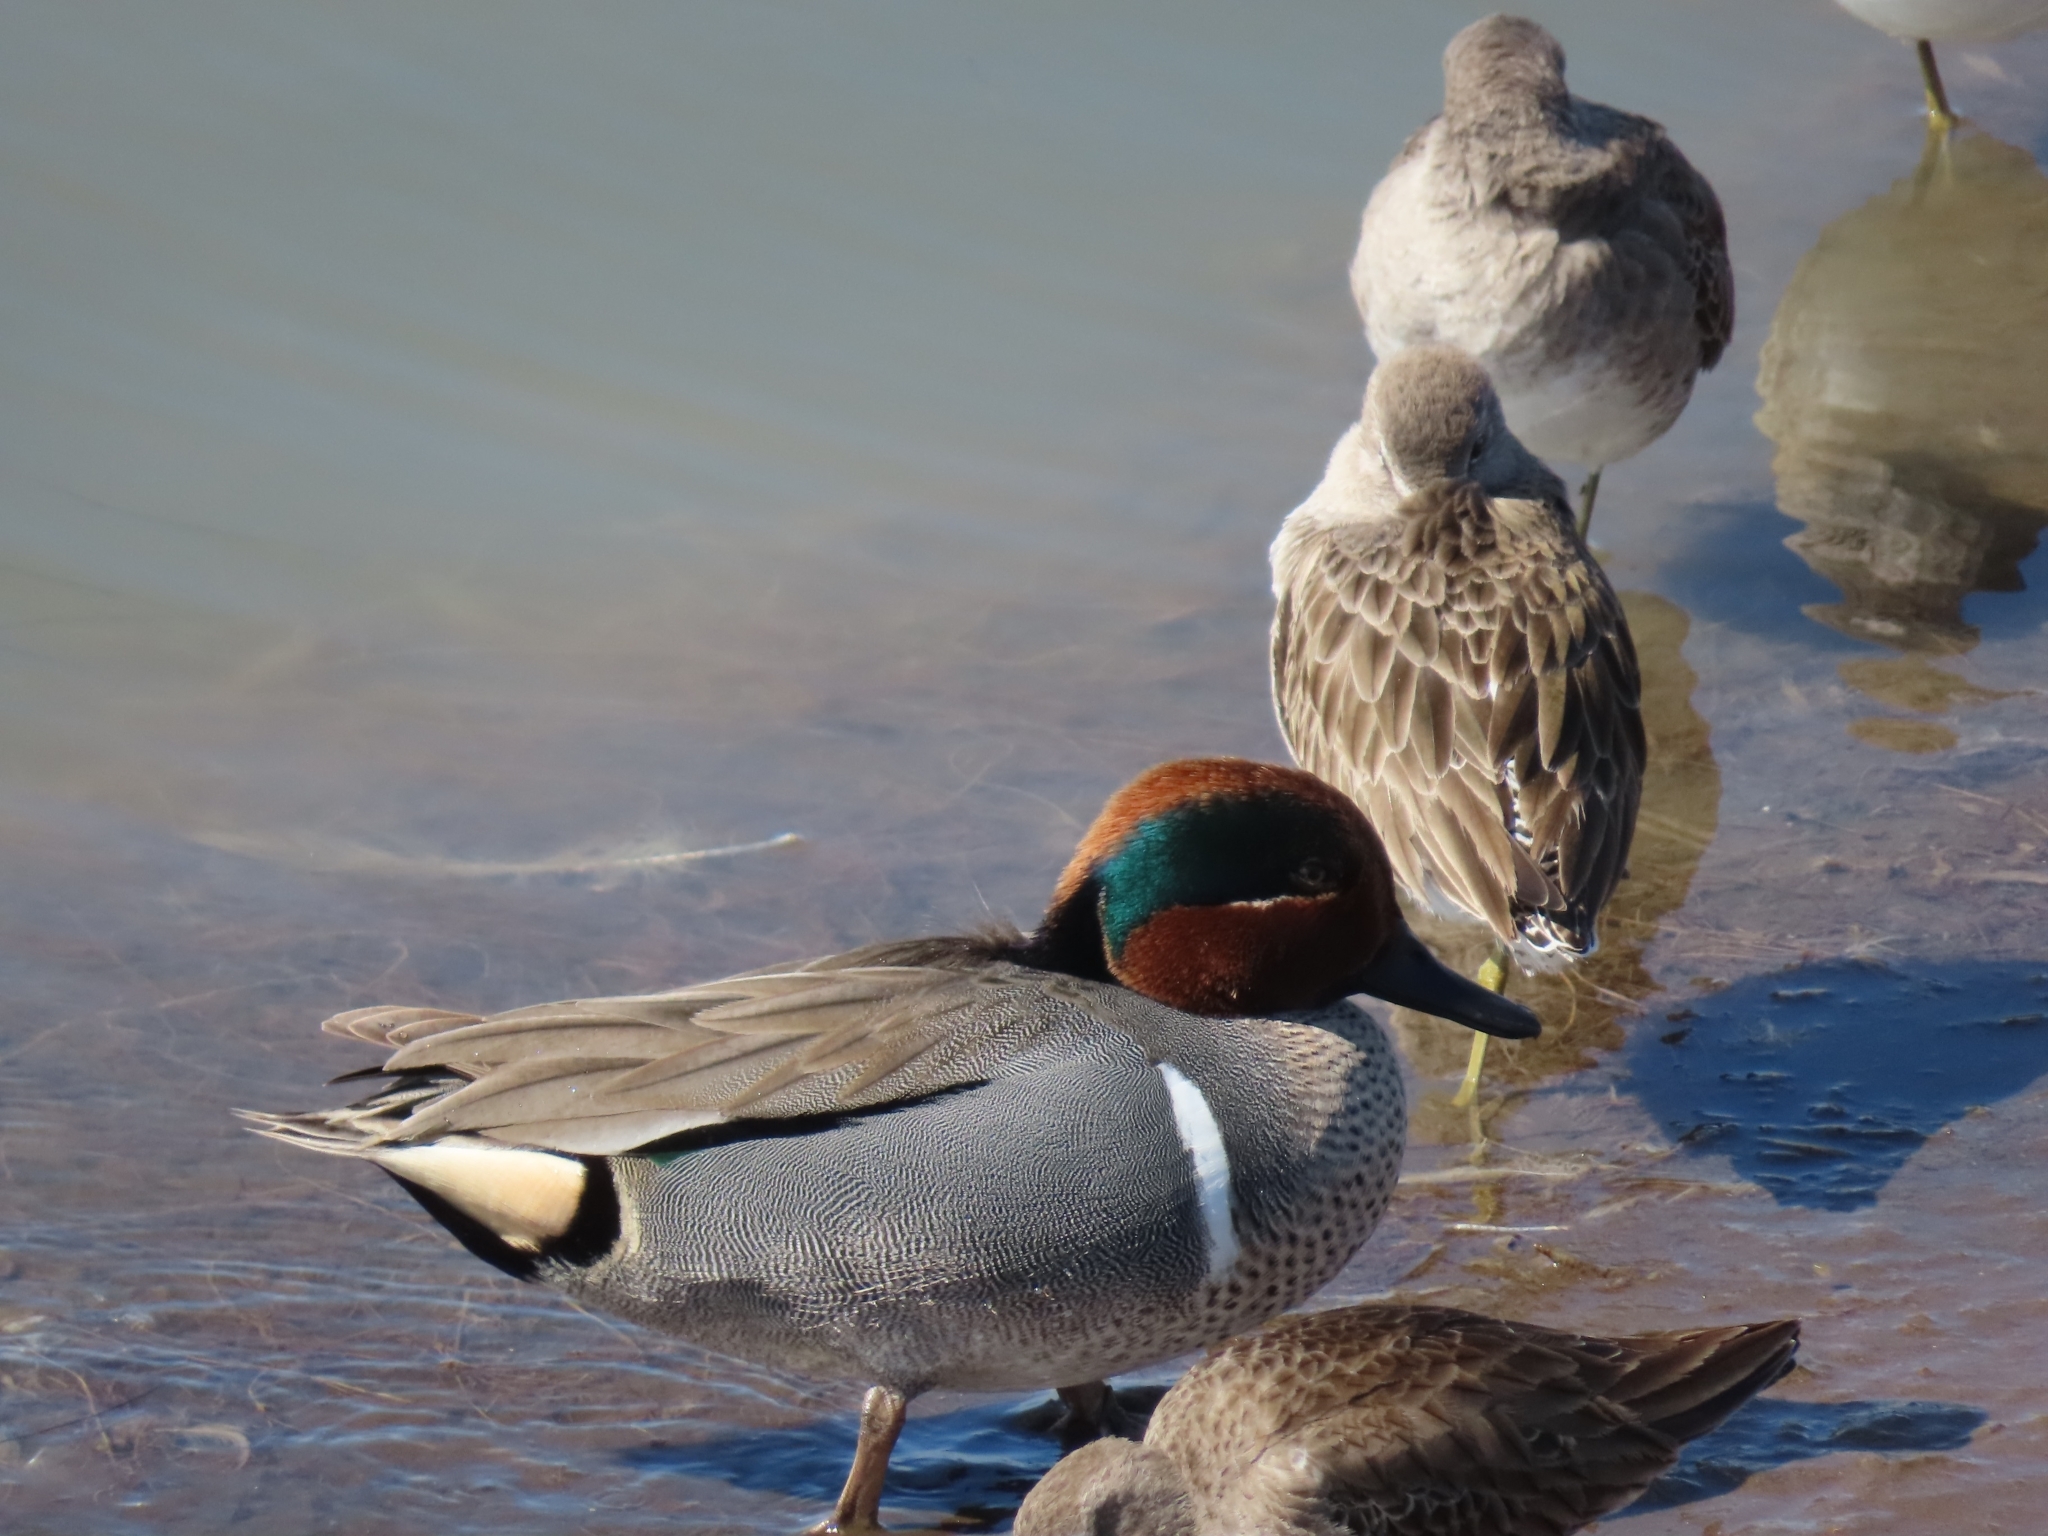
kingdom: Animalia
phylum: Chordata
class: Aves
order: Anseriformes
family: Anatidae
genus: Anas
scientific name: Anas crecca
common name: Eurasian teal
